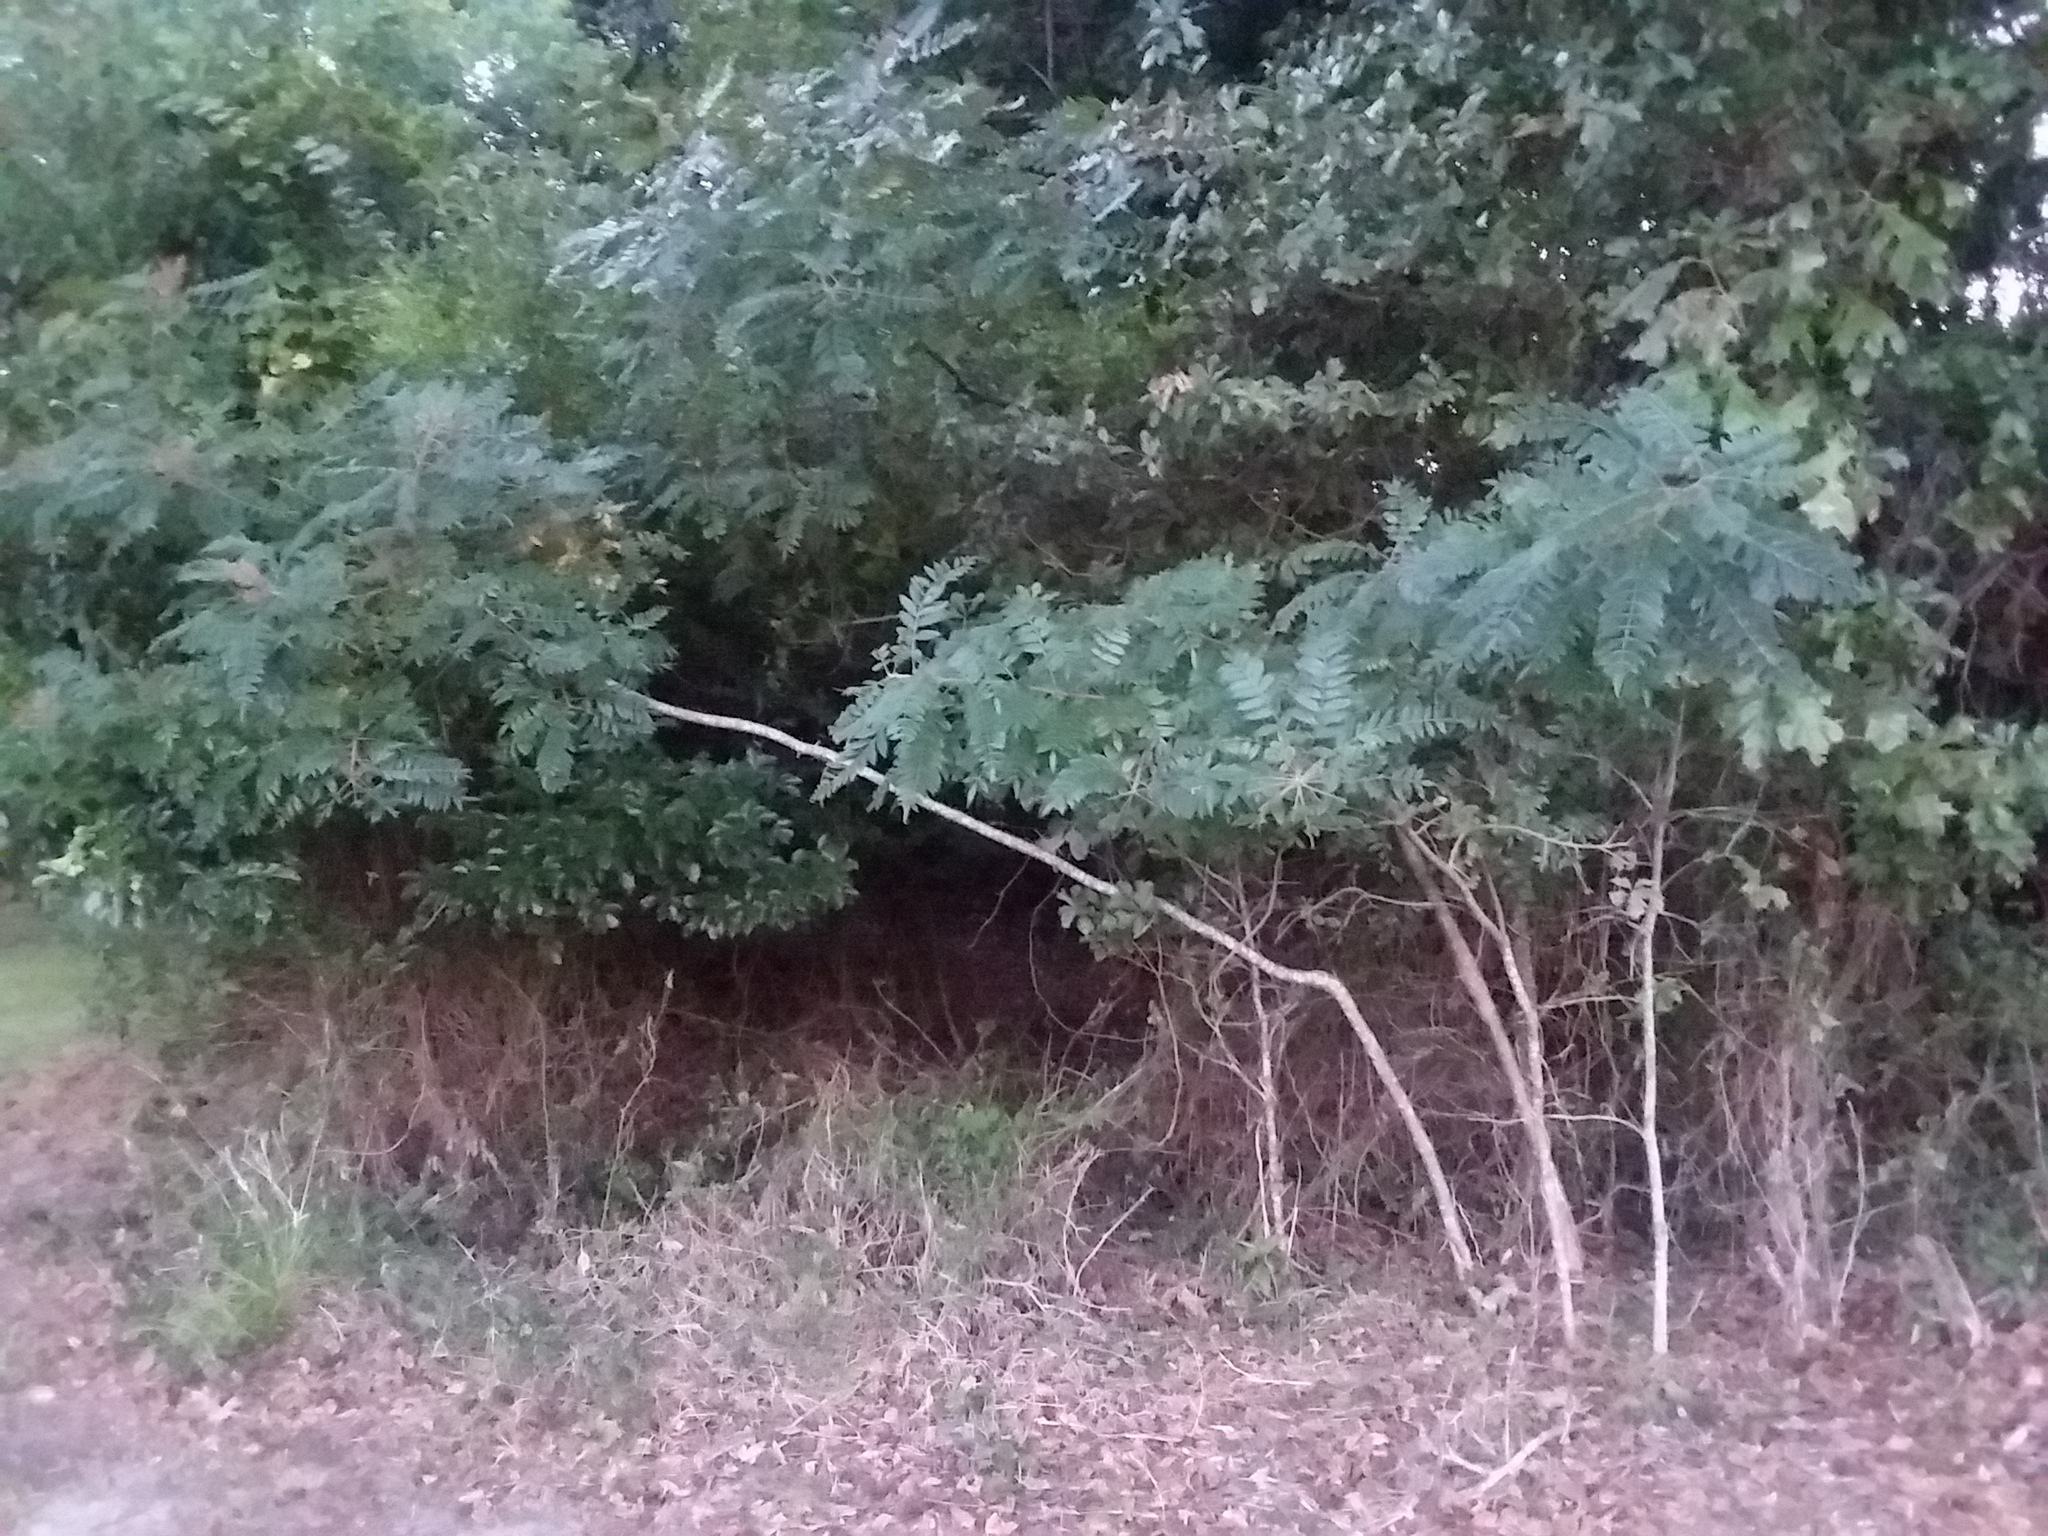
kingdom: Plantae
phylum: Tracheophyta
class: Magnoliopsida
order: Sapindales
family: Anacardiaceae
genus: Rhus
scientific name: Rhus copallina
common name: Shining sumac
